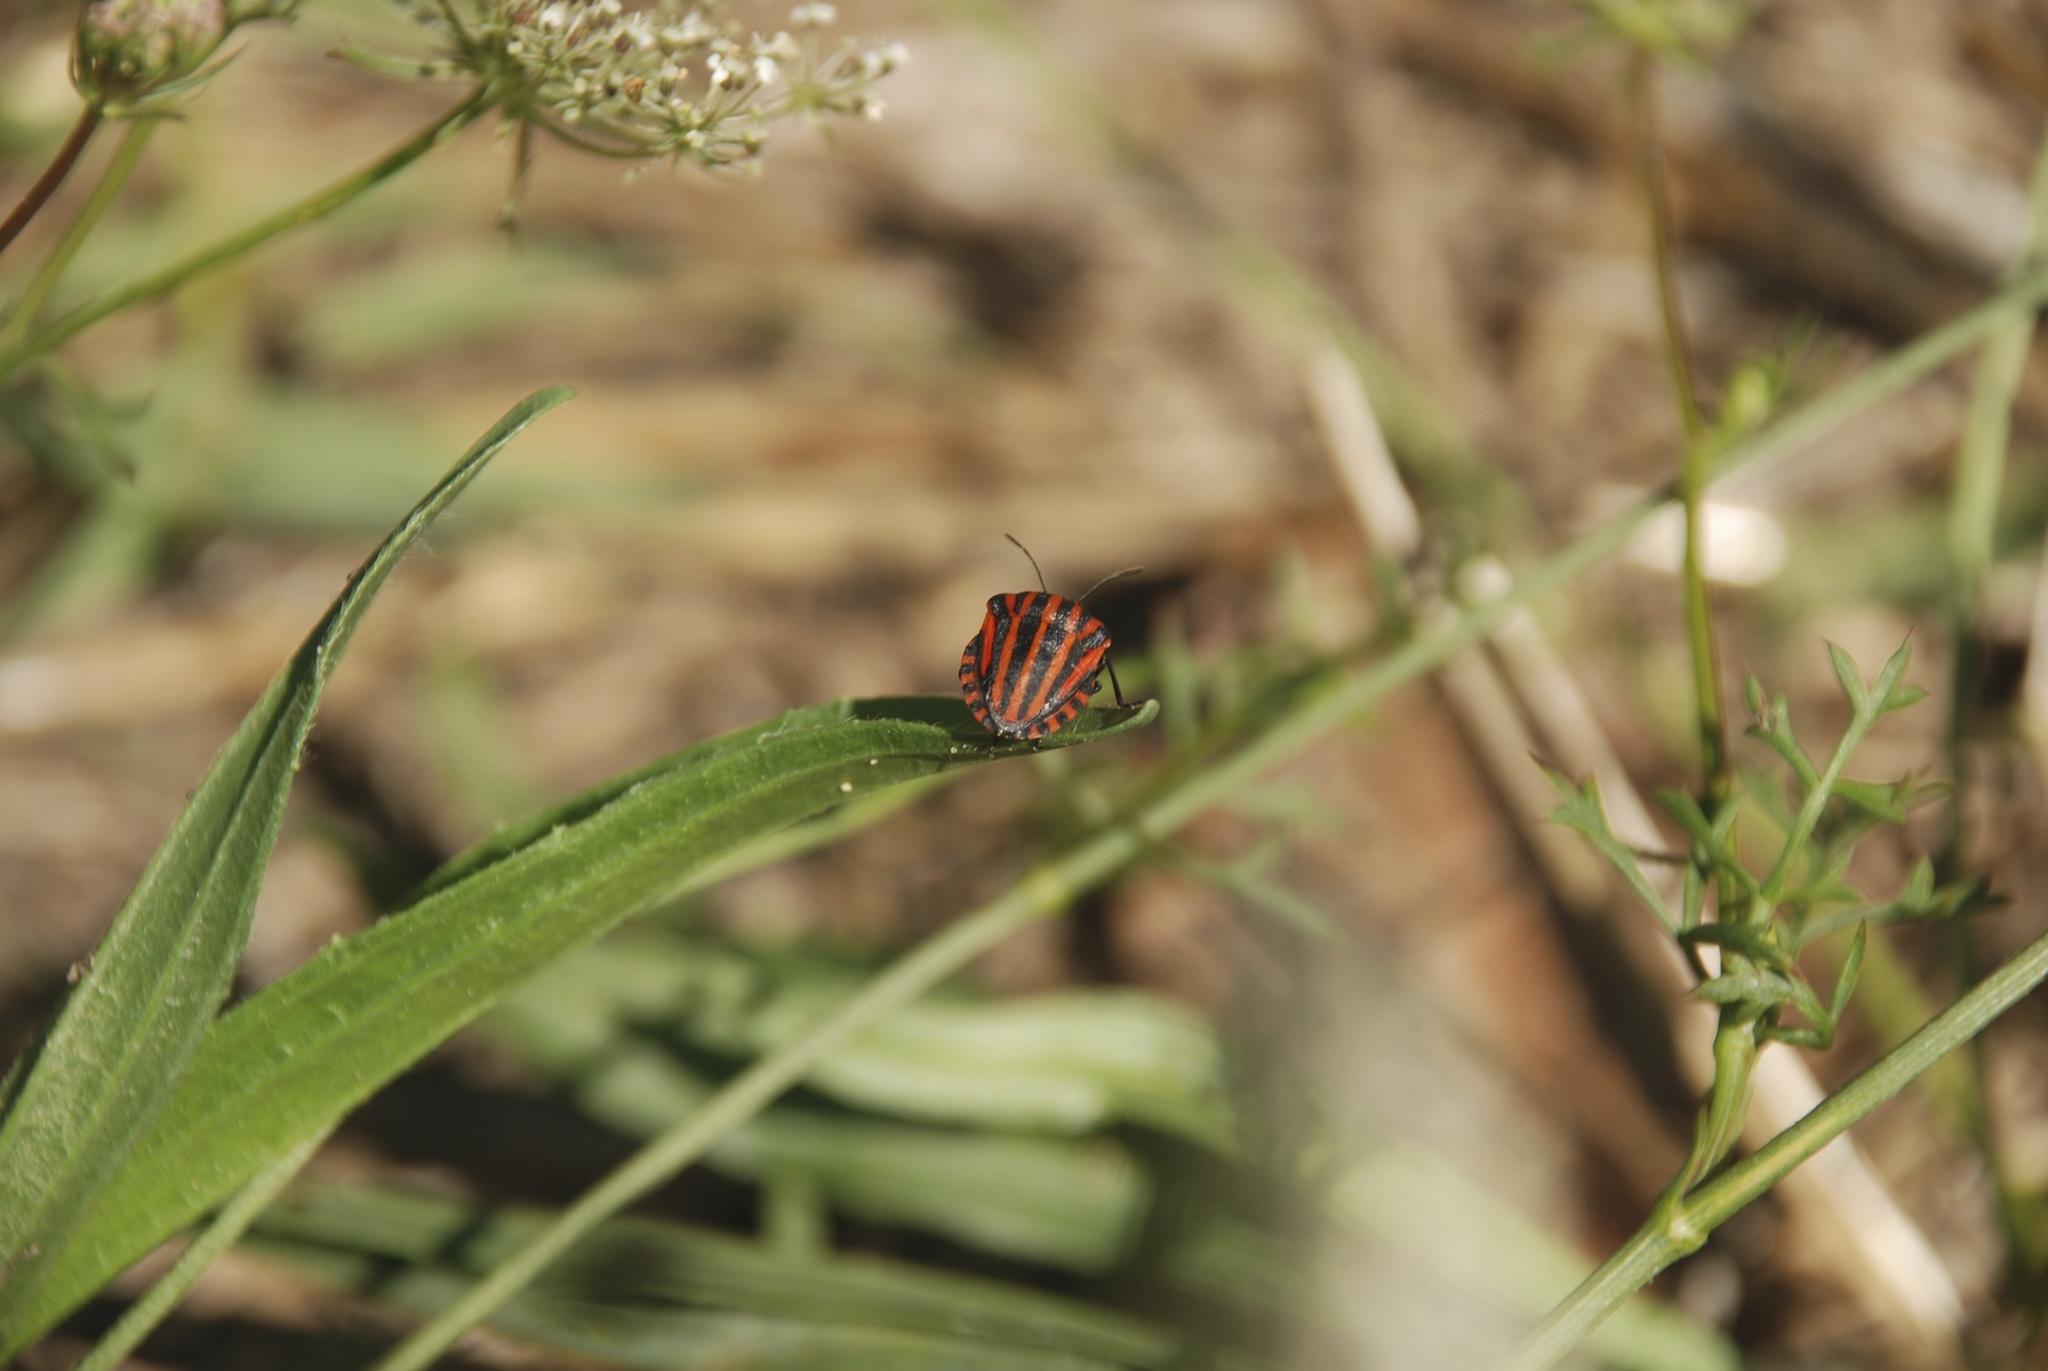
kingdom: Animalia
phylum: Arthropoda
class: Insecta
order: Hemiptera
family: Pentatomidae
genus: Graphosoma
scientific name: Graphosoma italicum
